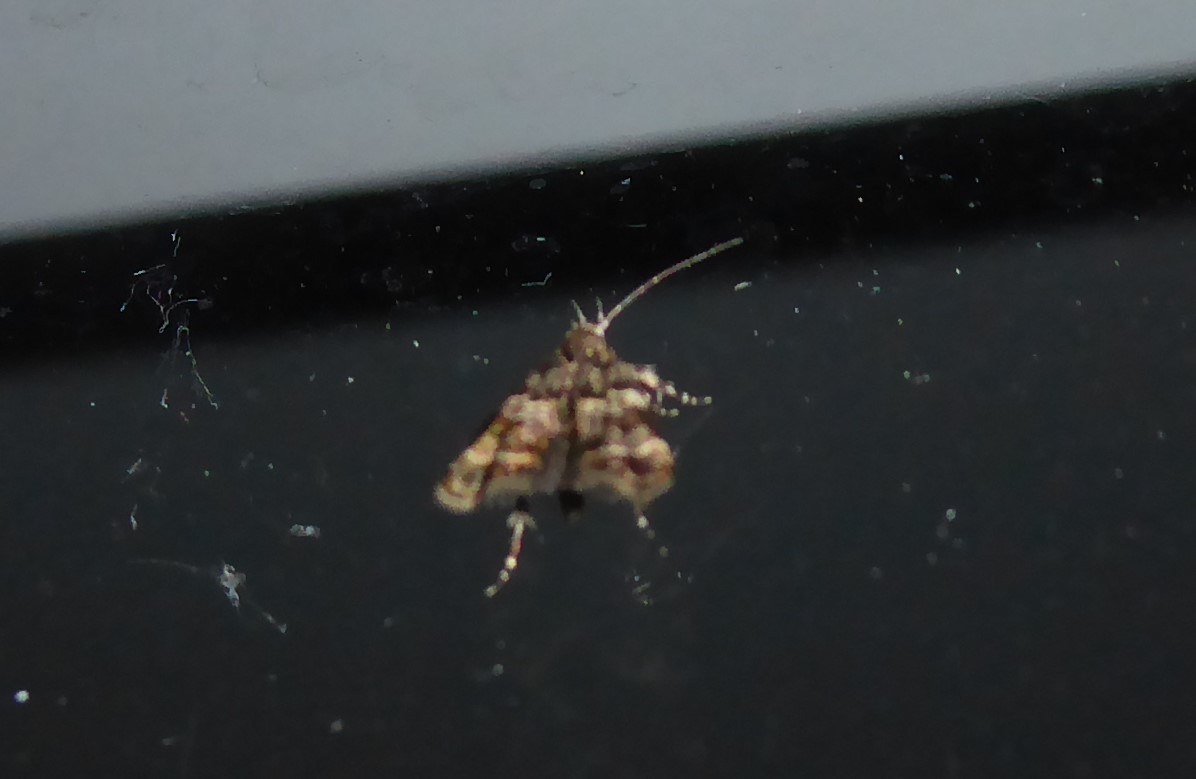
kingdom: Animalia
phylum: Arthropoda
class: Insecta
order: Lepidoptera
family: Oecophoridae
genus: Gymnobathra
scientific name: Gymnobathra omphalota
